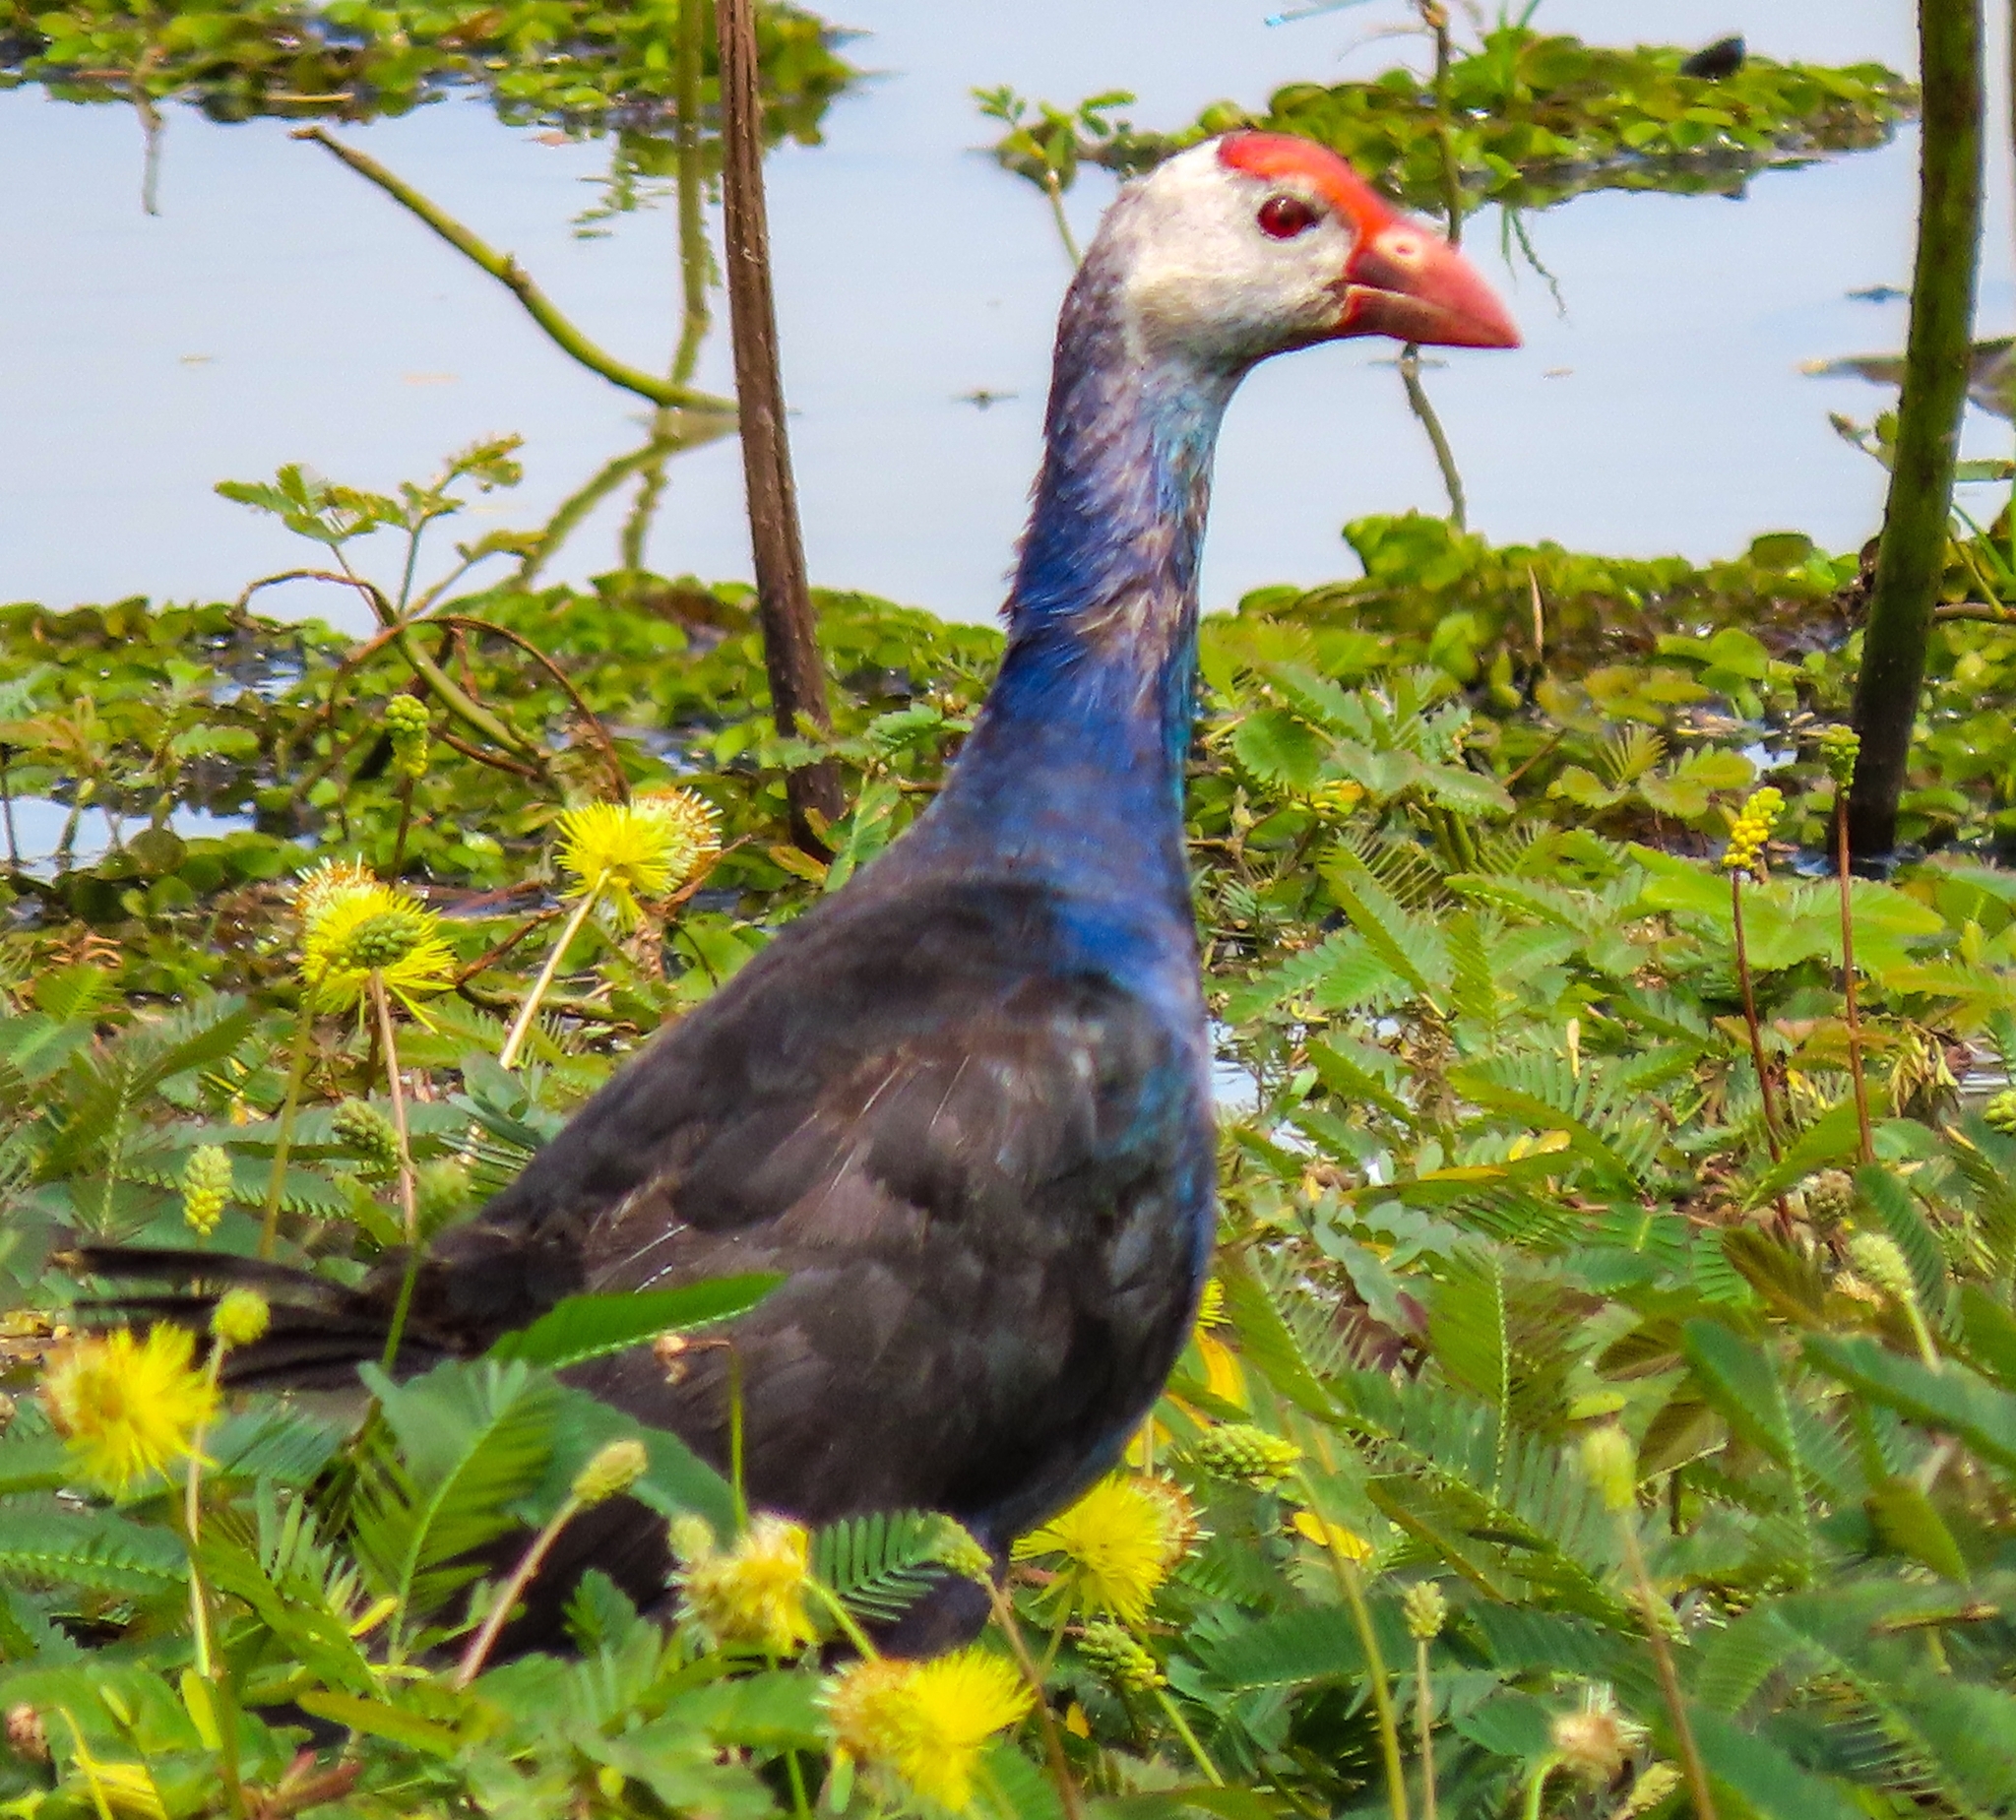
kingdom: Animalia
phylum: Chordata
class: Aves
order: Gruiformes
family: Rallidae
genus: Porphyrio
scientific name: Porphyrio porphyrio
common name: Purple swamphen
